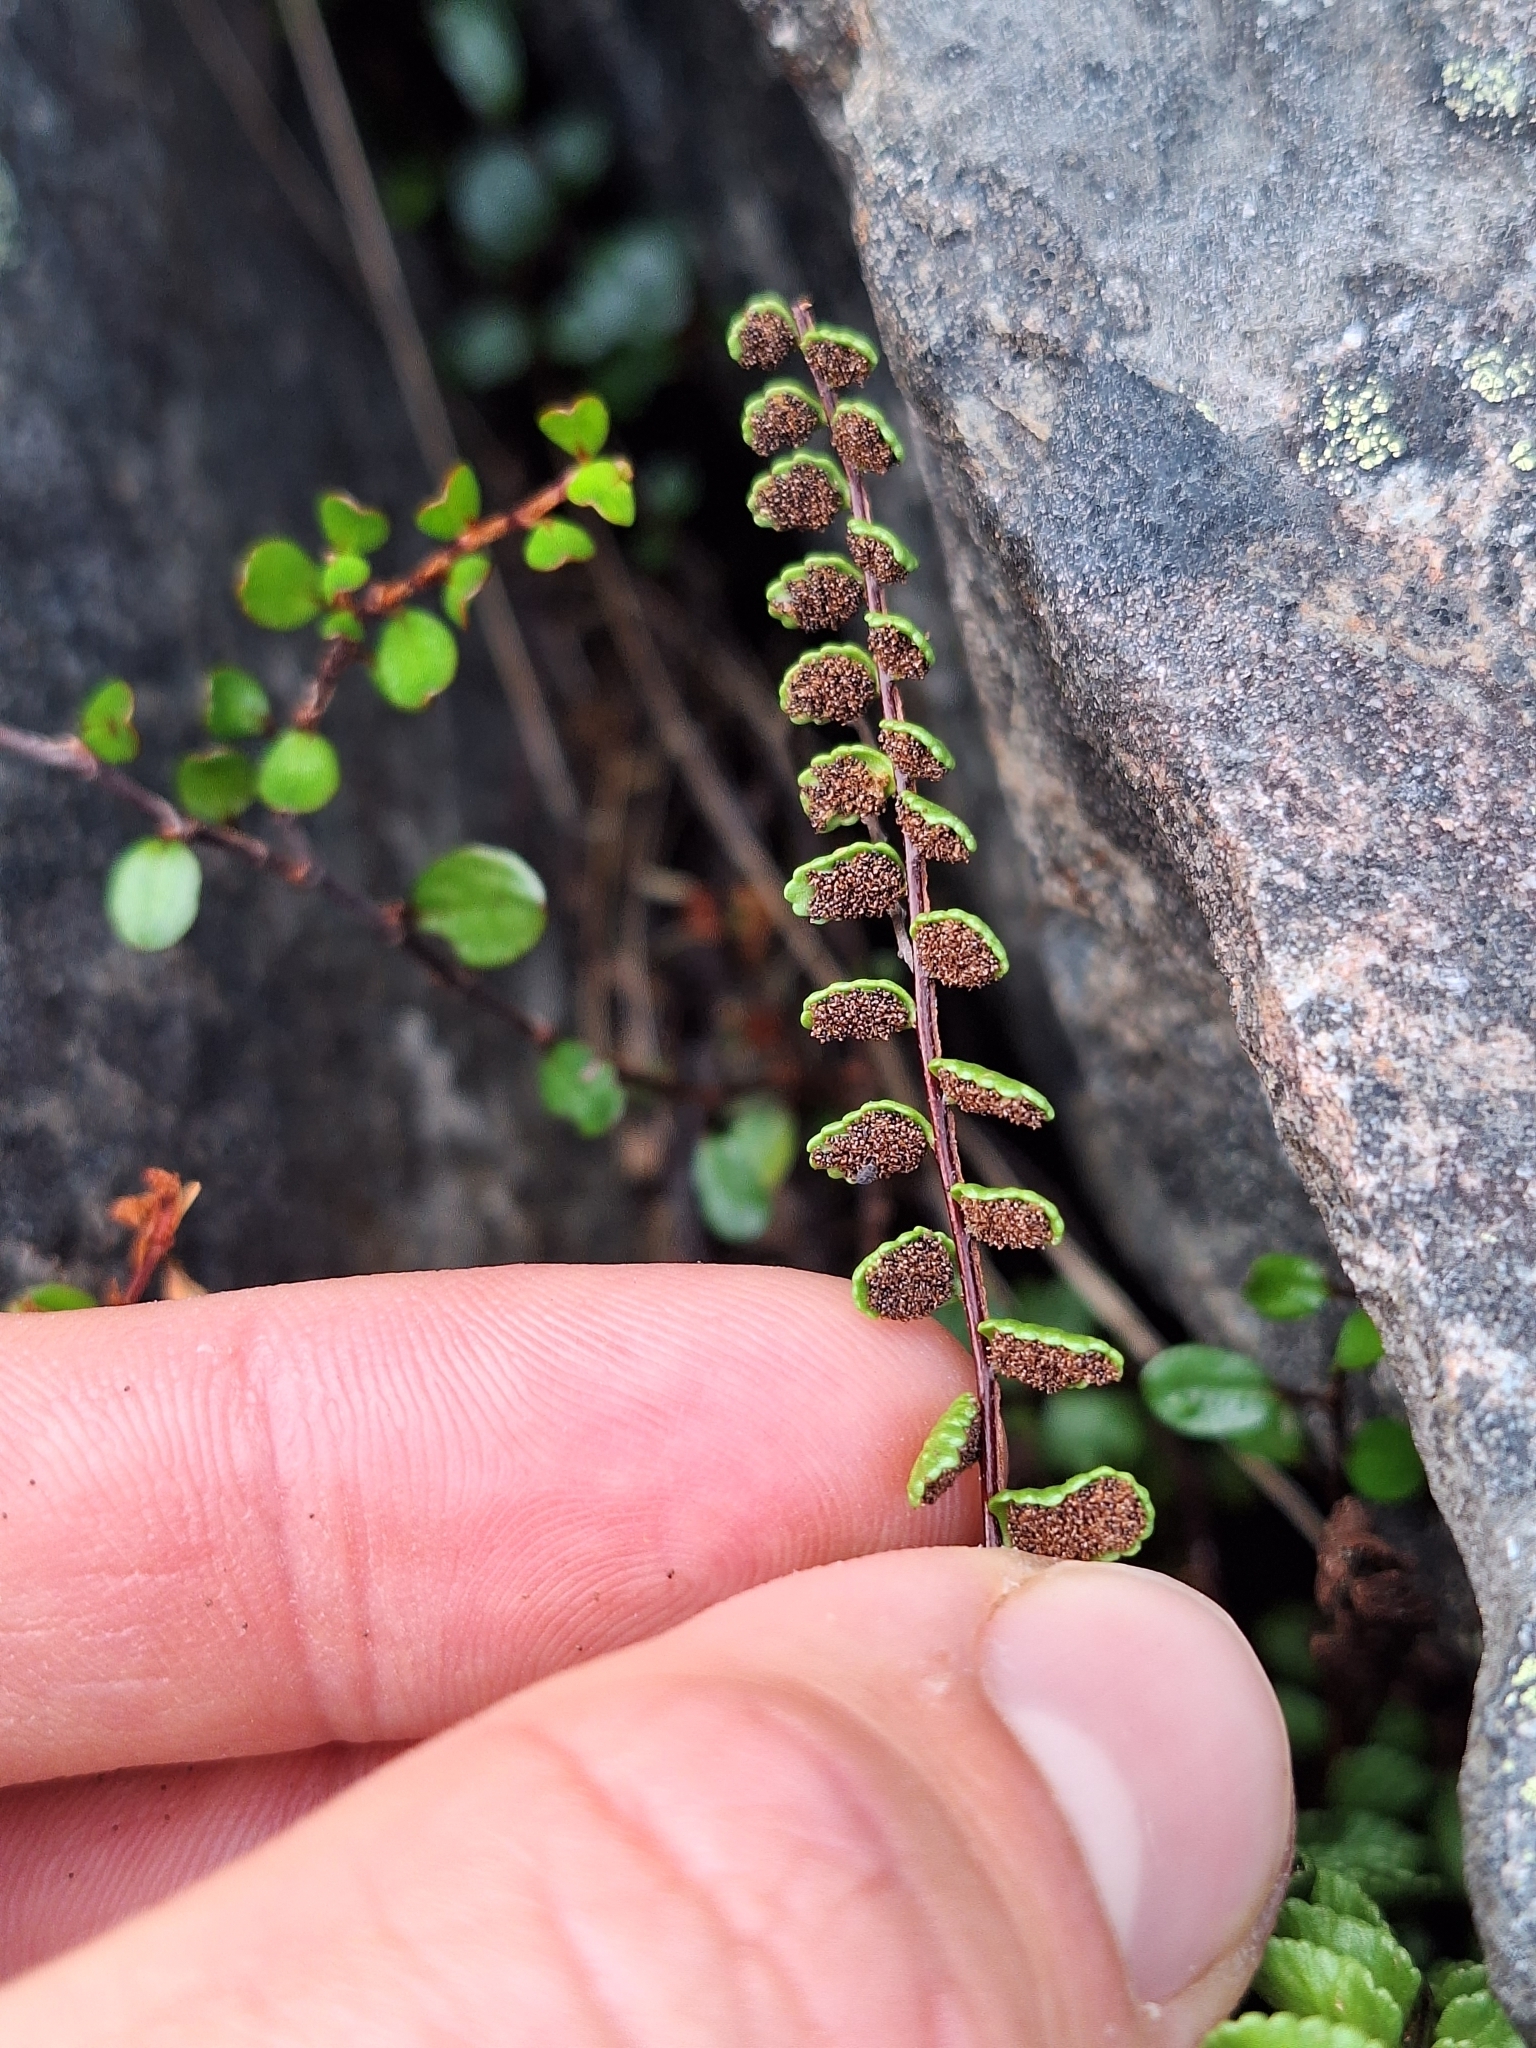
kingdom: Plantae
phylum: Tracheophyta
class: Polypodiopsida
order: Polypodiales
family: Aspleniaceae
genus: Asplenium
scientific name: Asplenium trichomanes
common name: Maidenhair spleenwort
